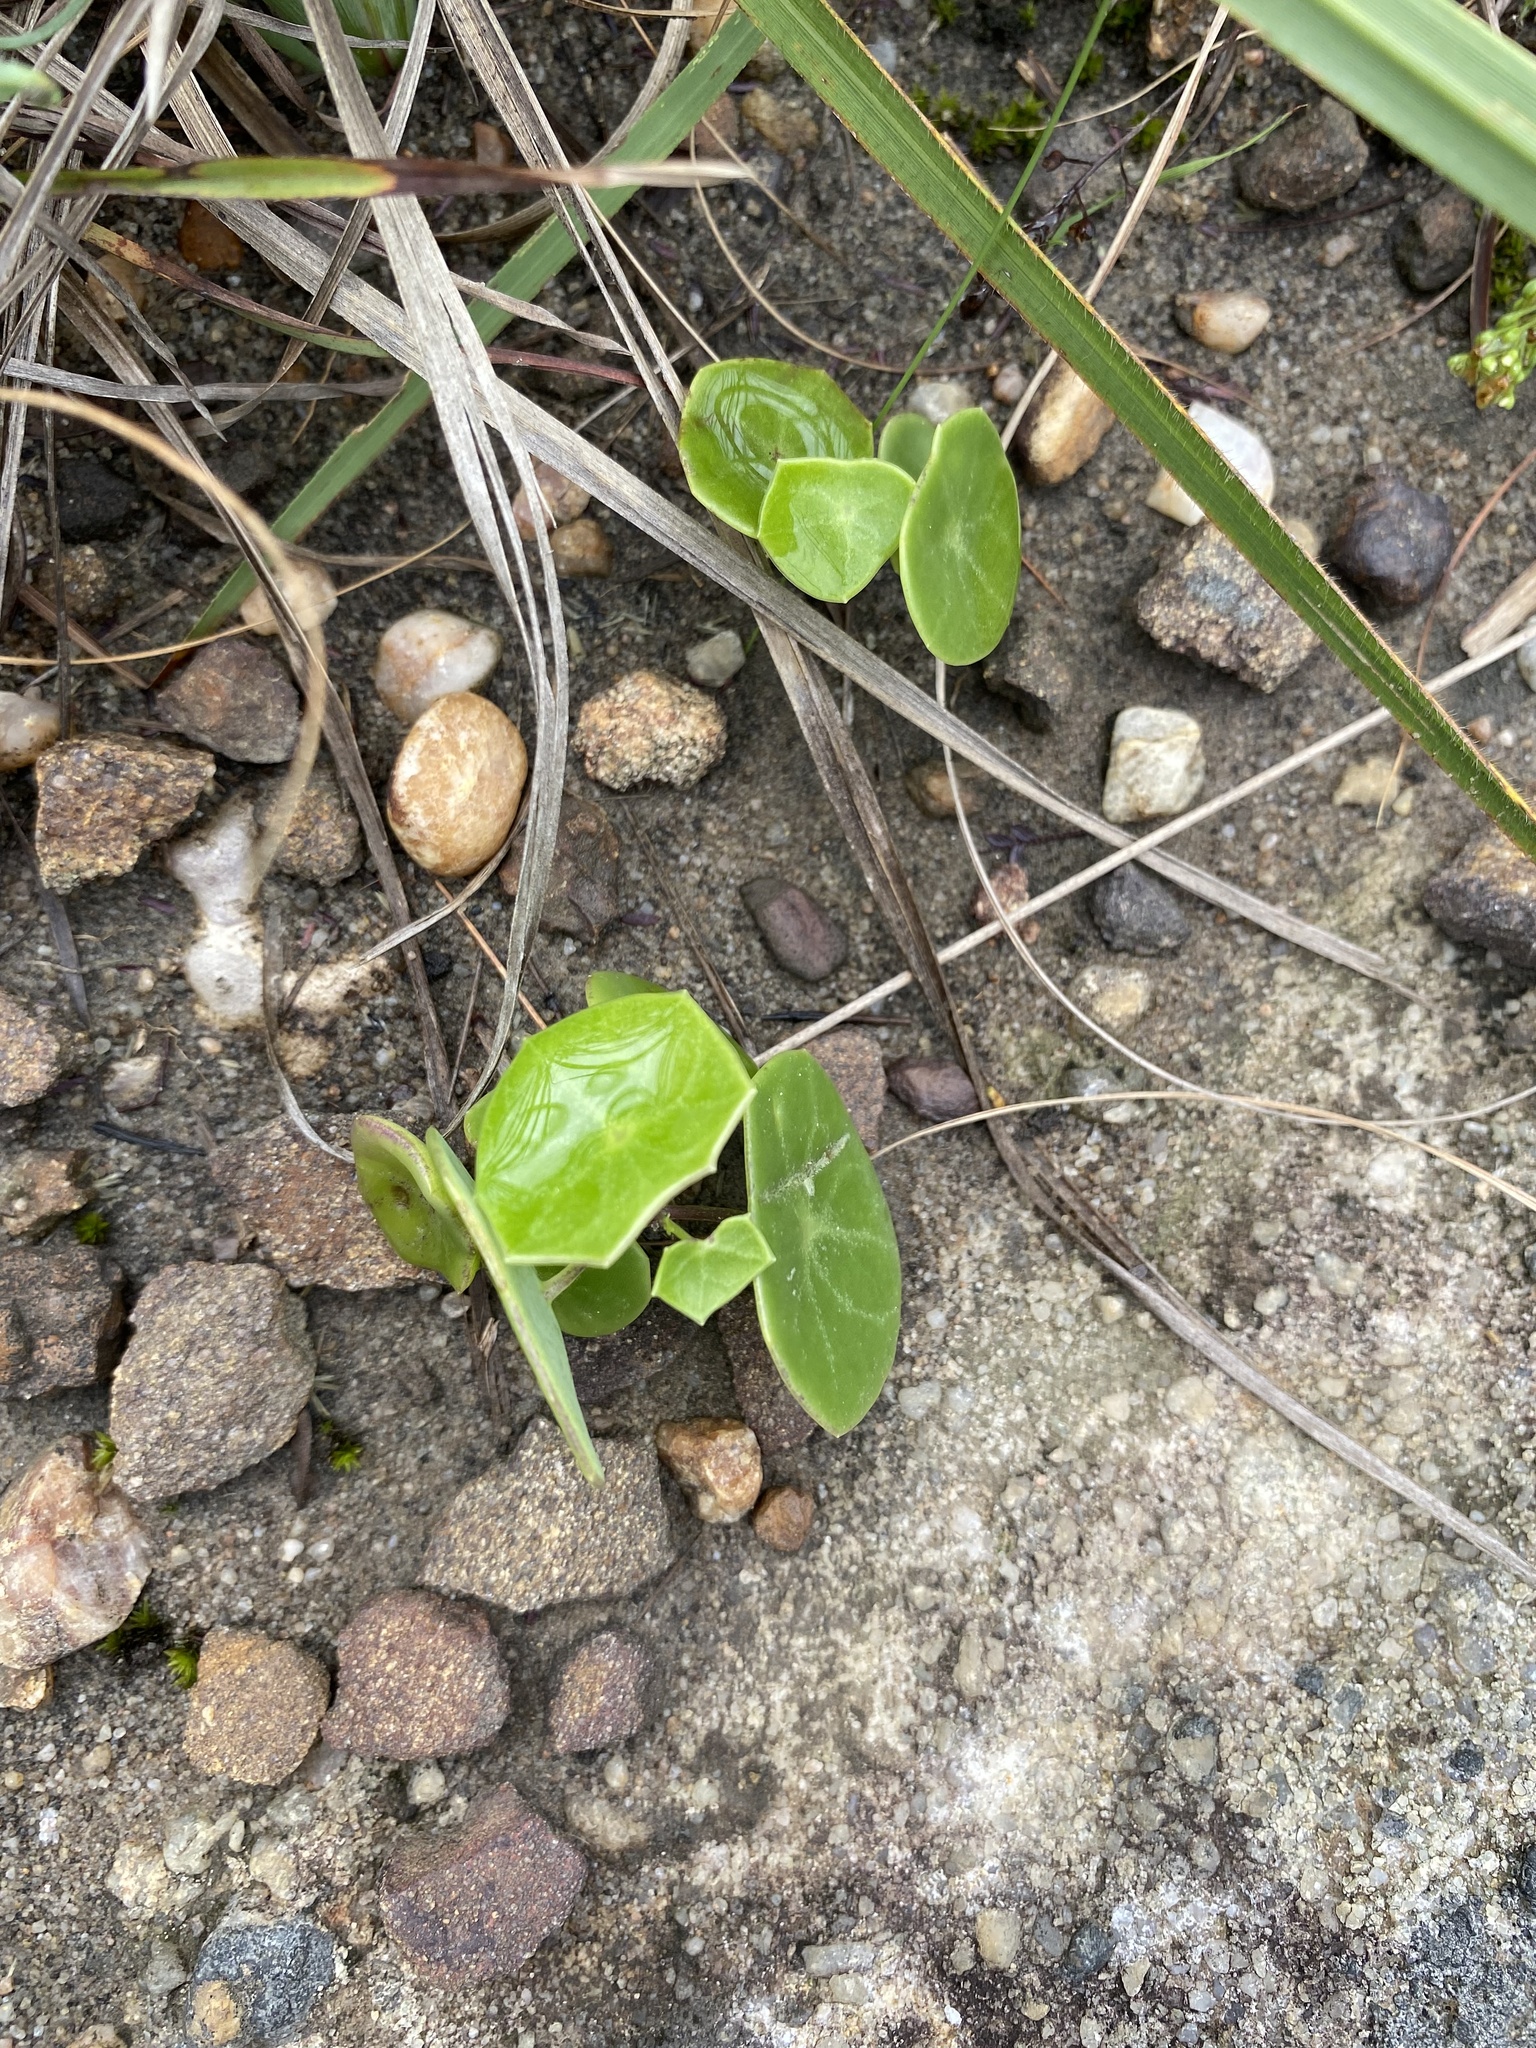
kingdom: Plantae
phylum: Tracheophyta
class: Magnoliopsida
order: Asterales
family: Asteraceae
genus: Senecio
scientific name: Senecio oxyriifolius
